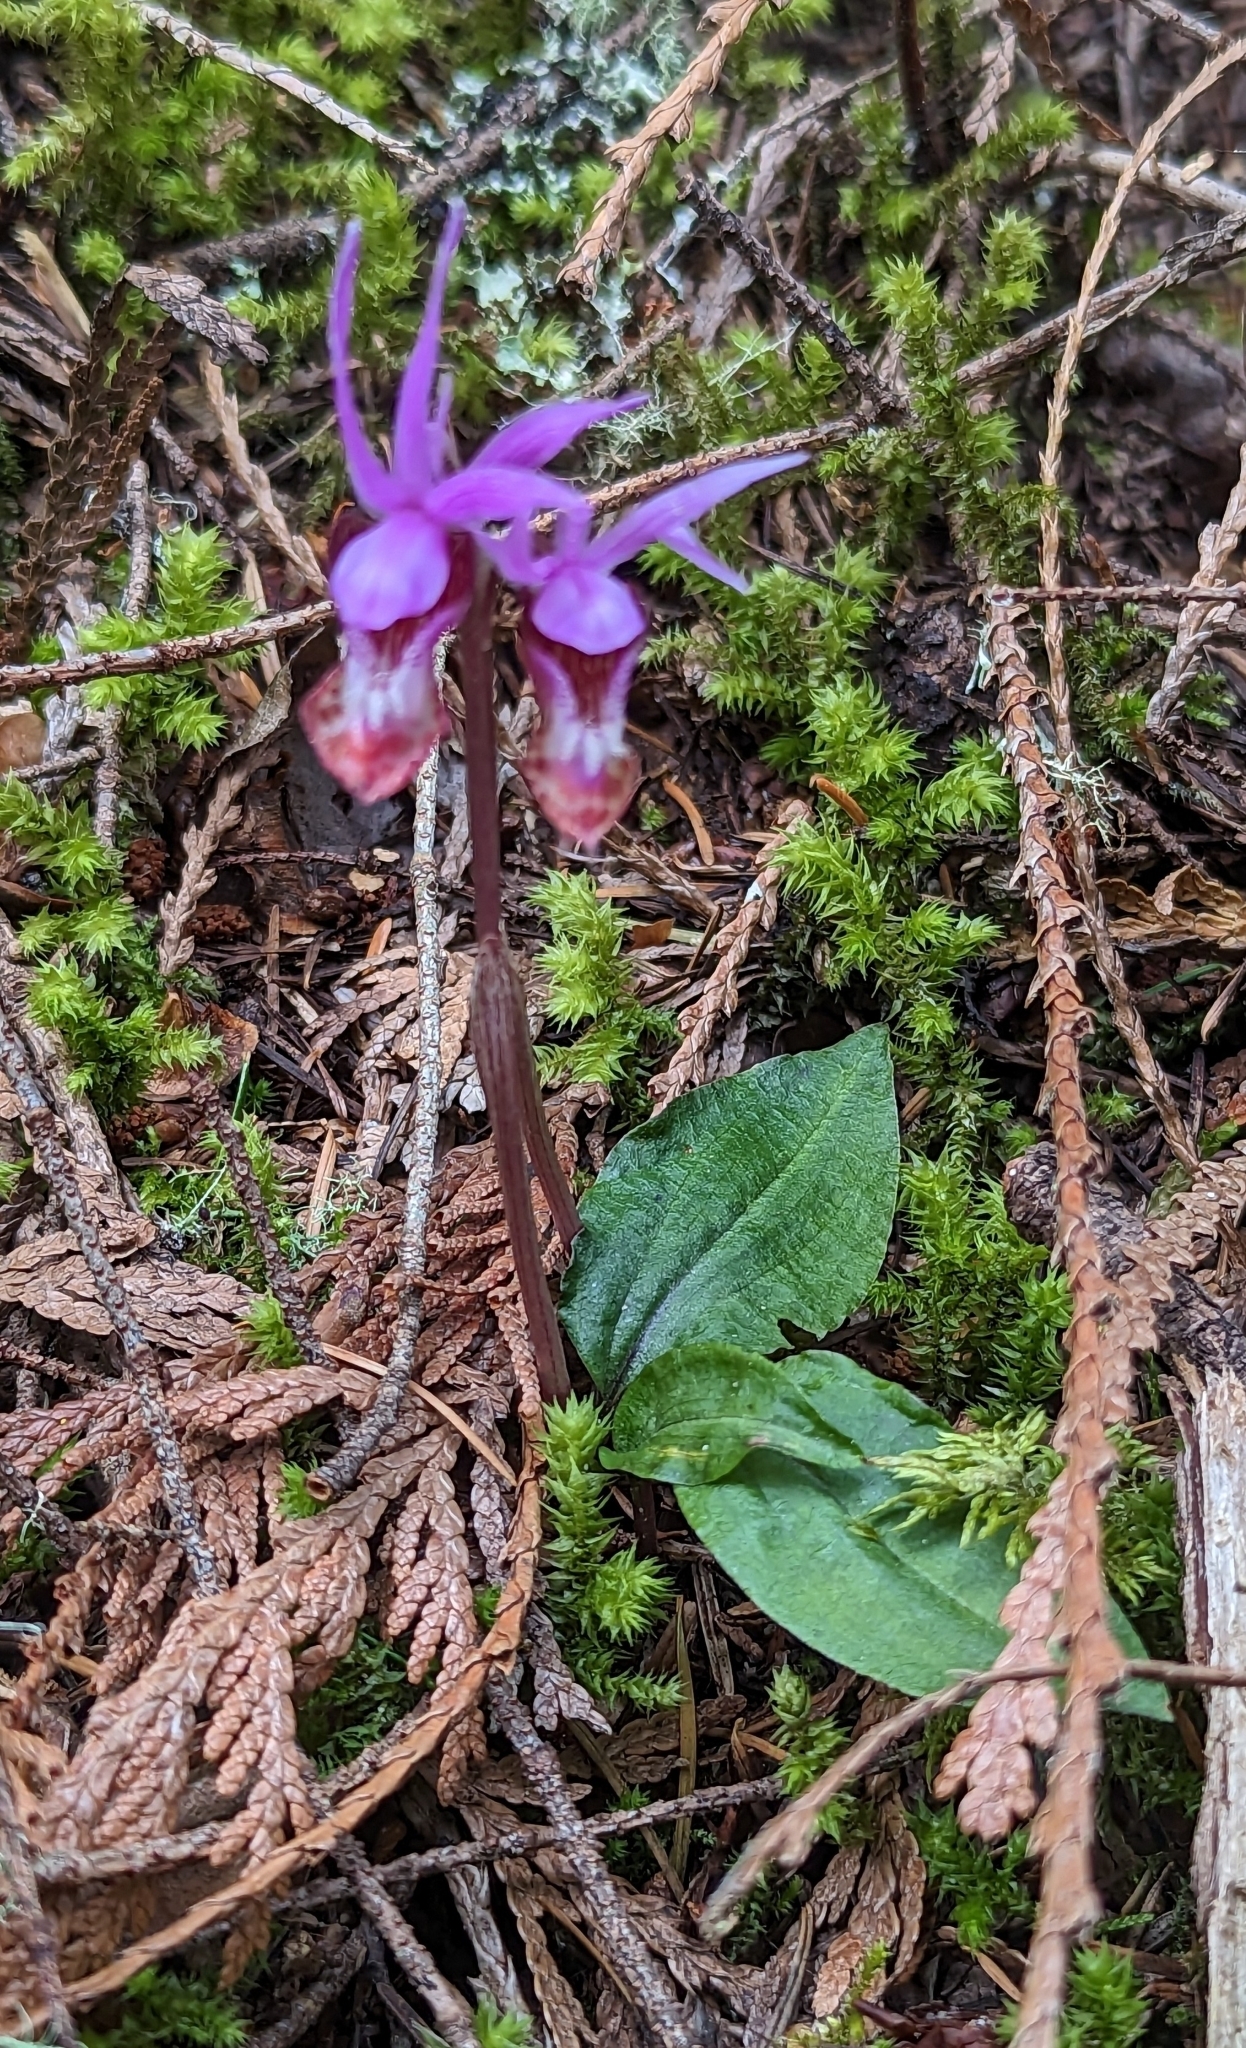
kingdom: Plantae
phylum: Tracheophyta
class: Liliopsida
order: Asparagales
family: Orchidaceae
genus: Calypso
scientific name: Calypso bulbosa
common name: Calypso
